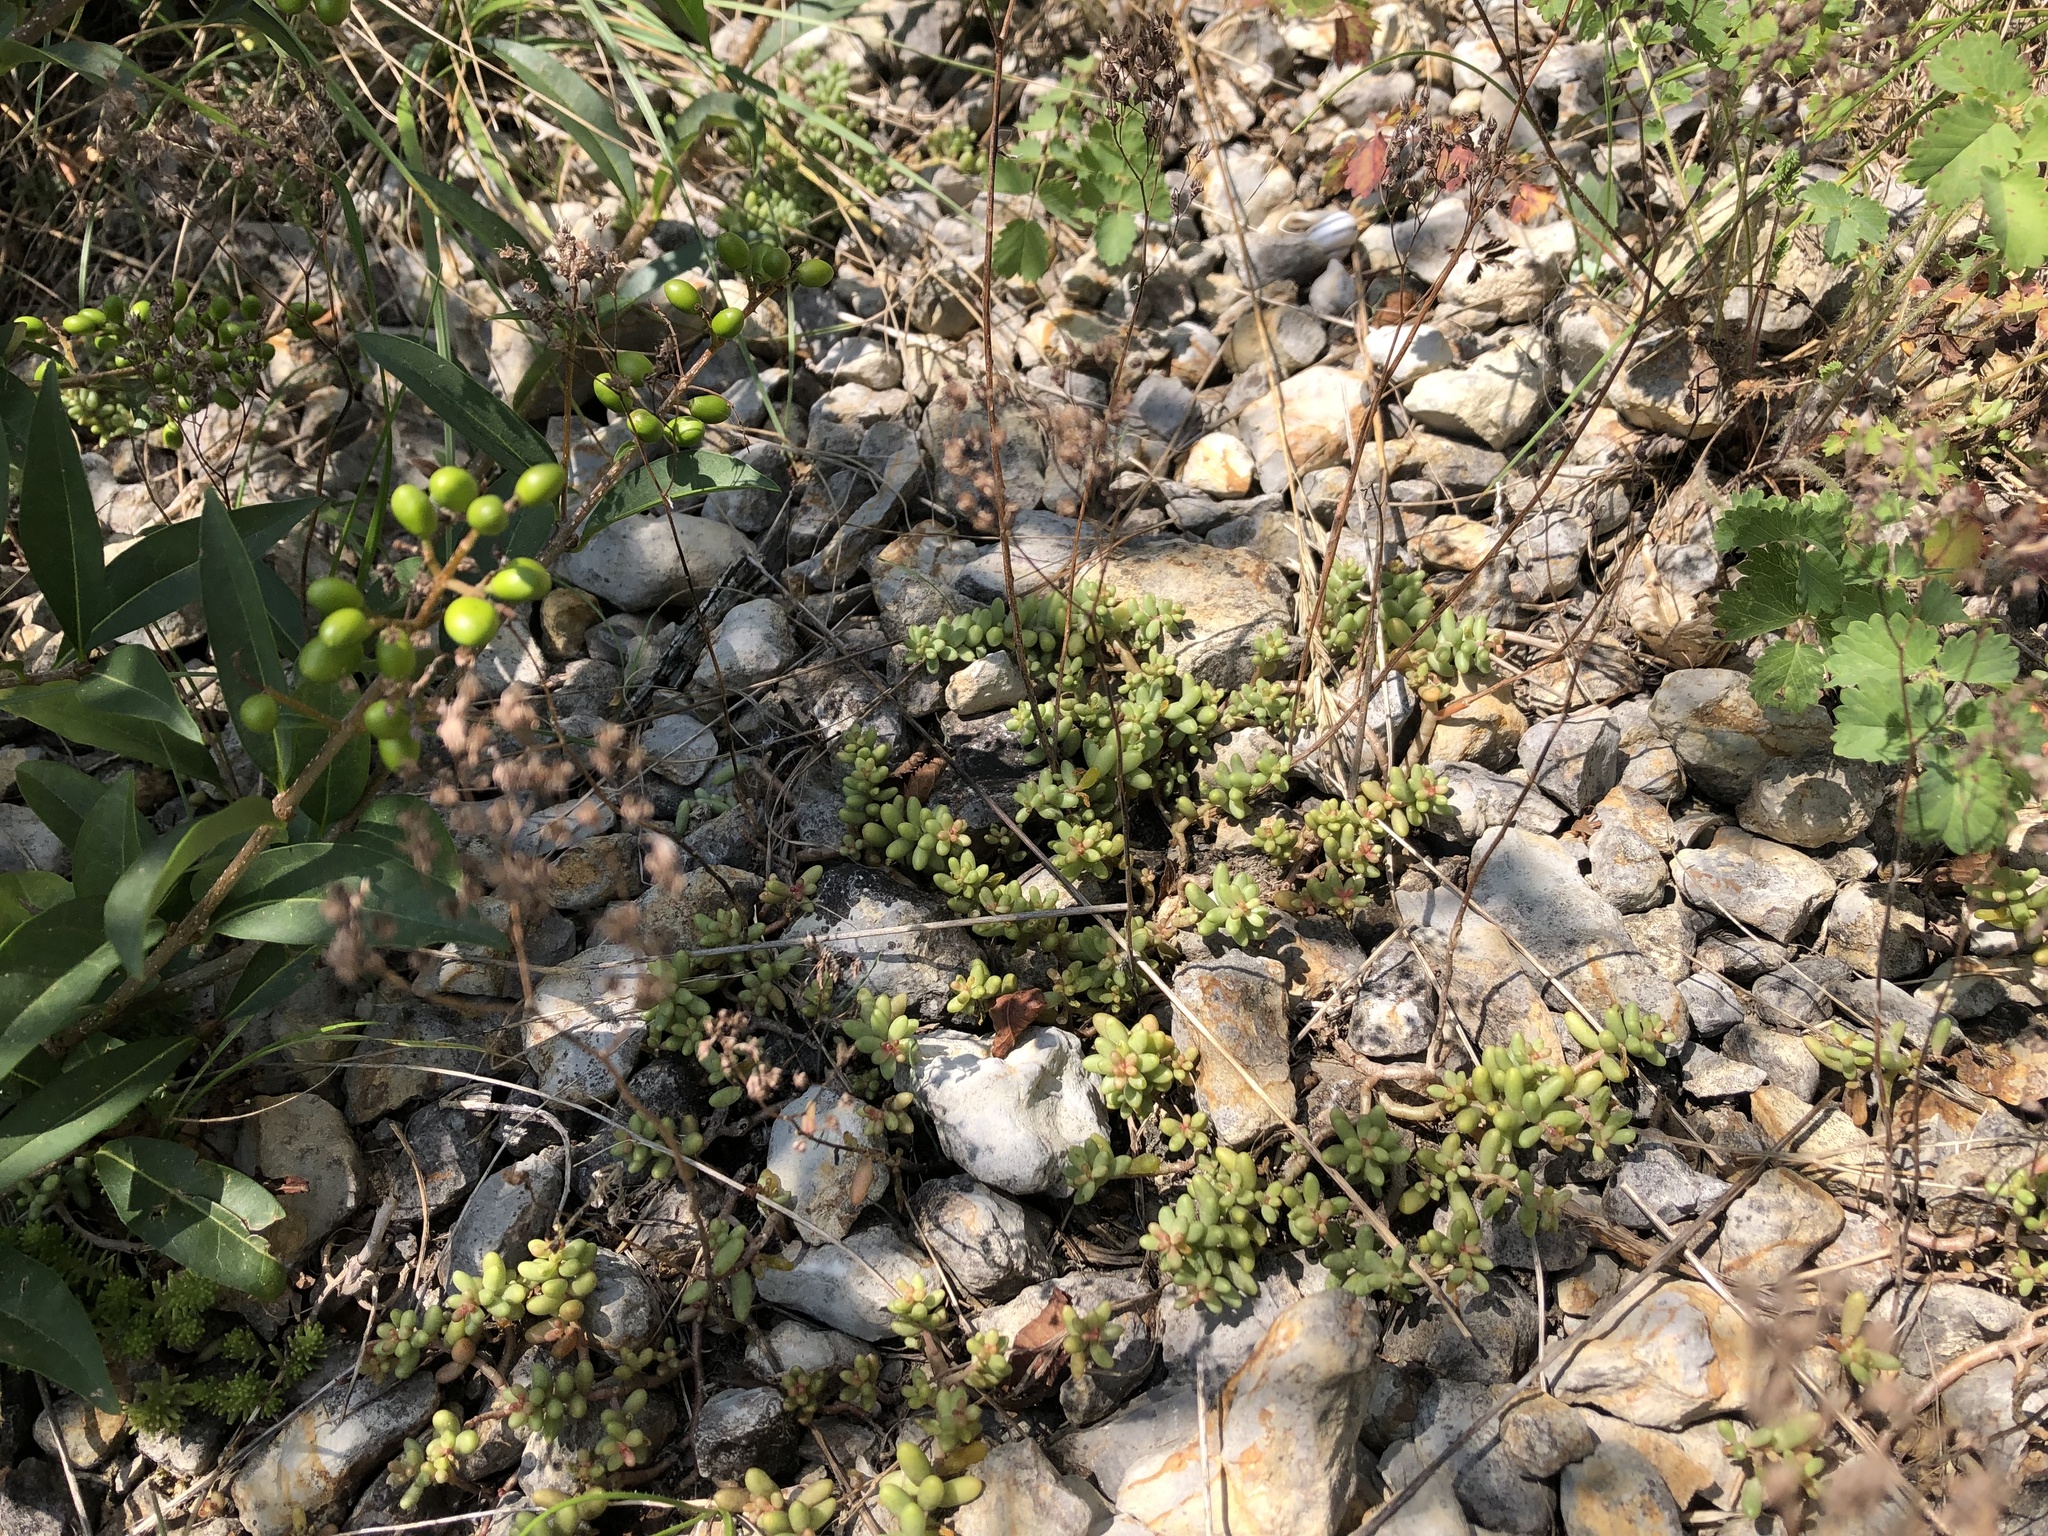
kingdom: Plantae
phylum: Tracheophyta
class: Magnoliopsida
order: Saxifragales
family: Crassulaceae
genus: Sedum
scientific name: Sedum album
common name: White stonecrop
